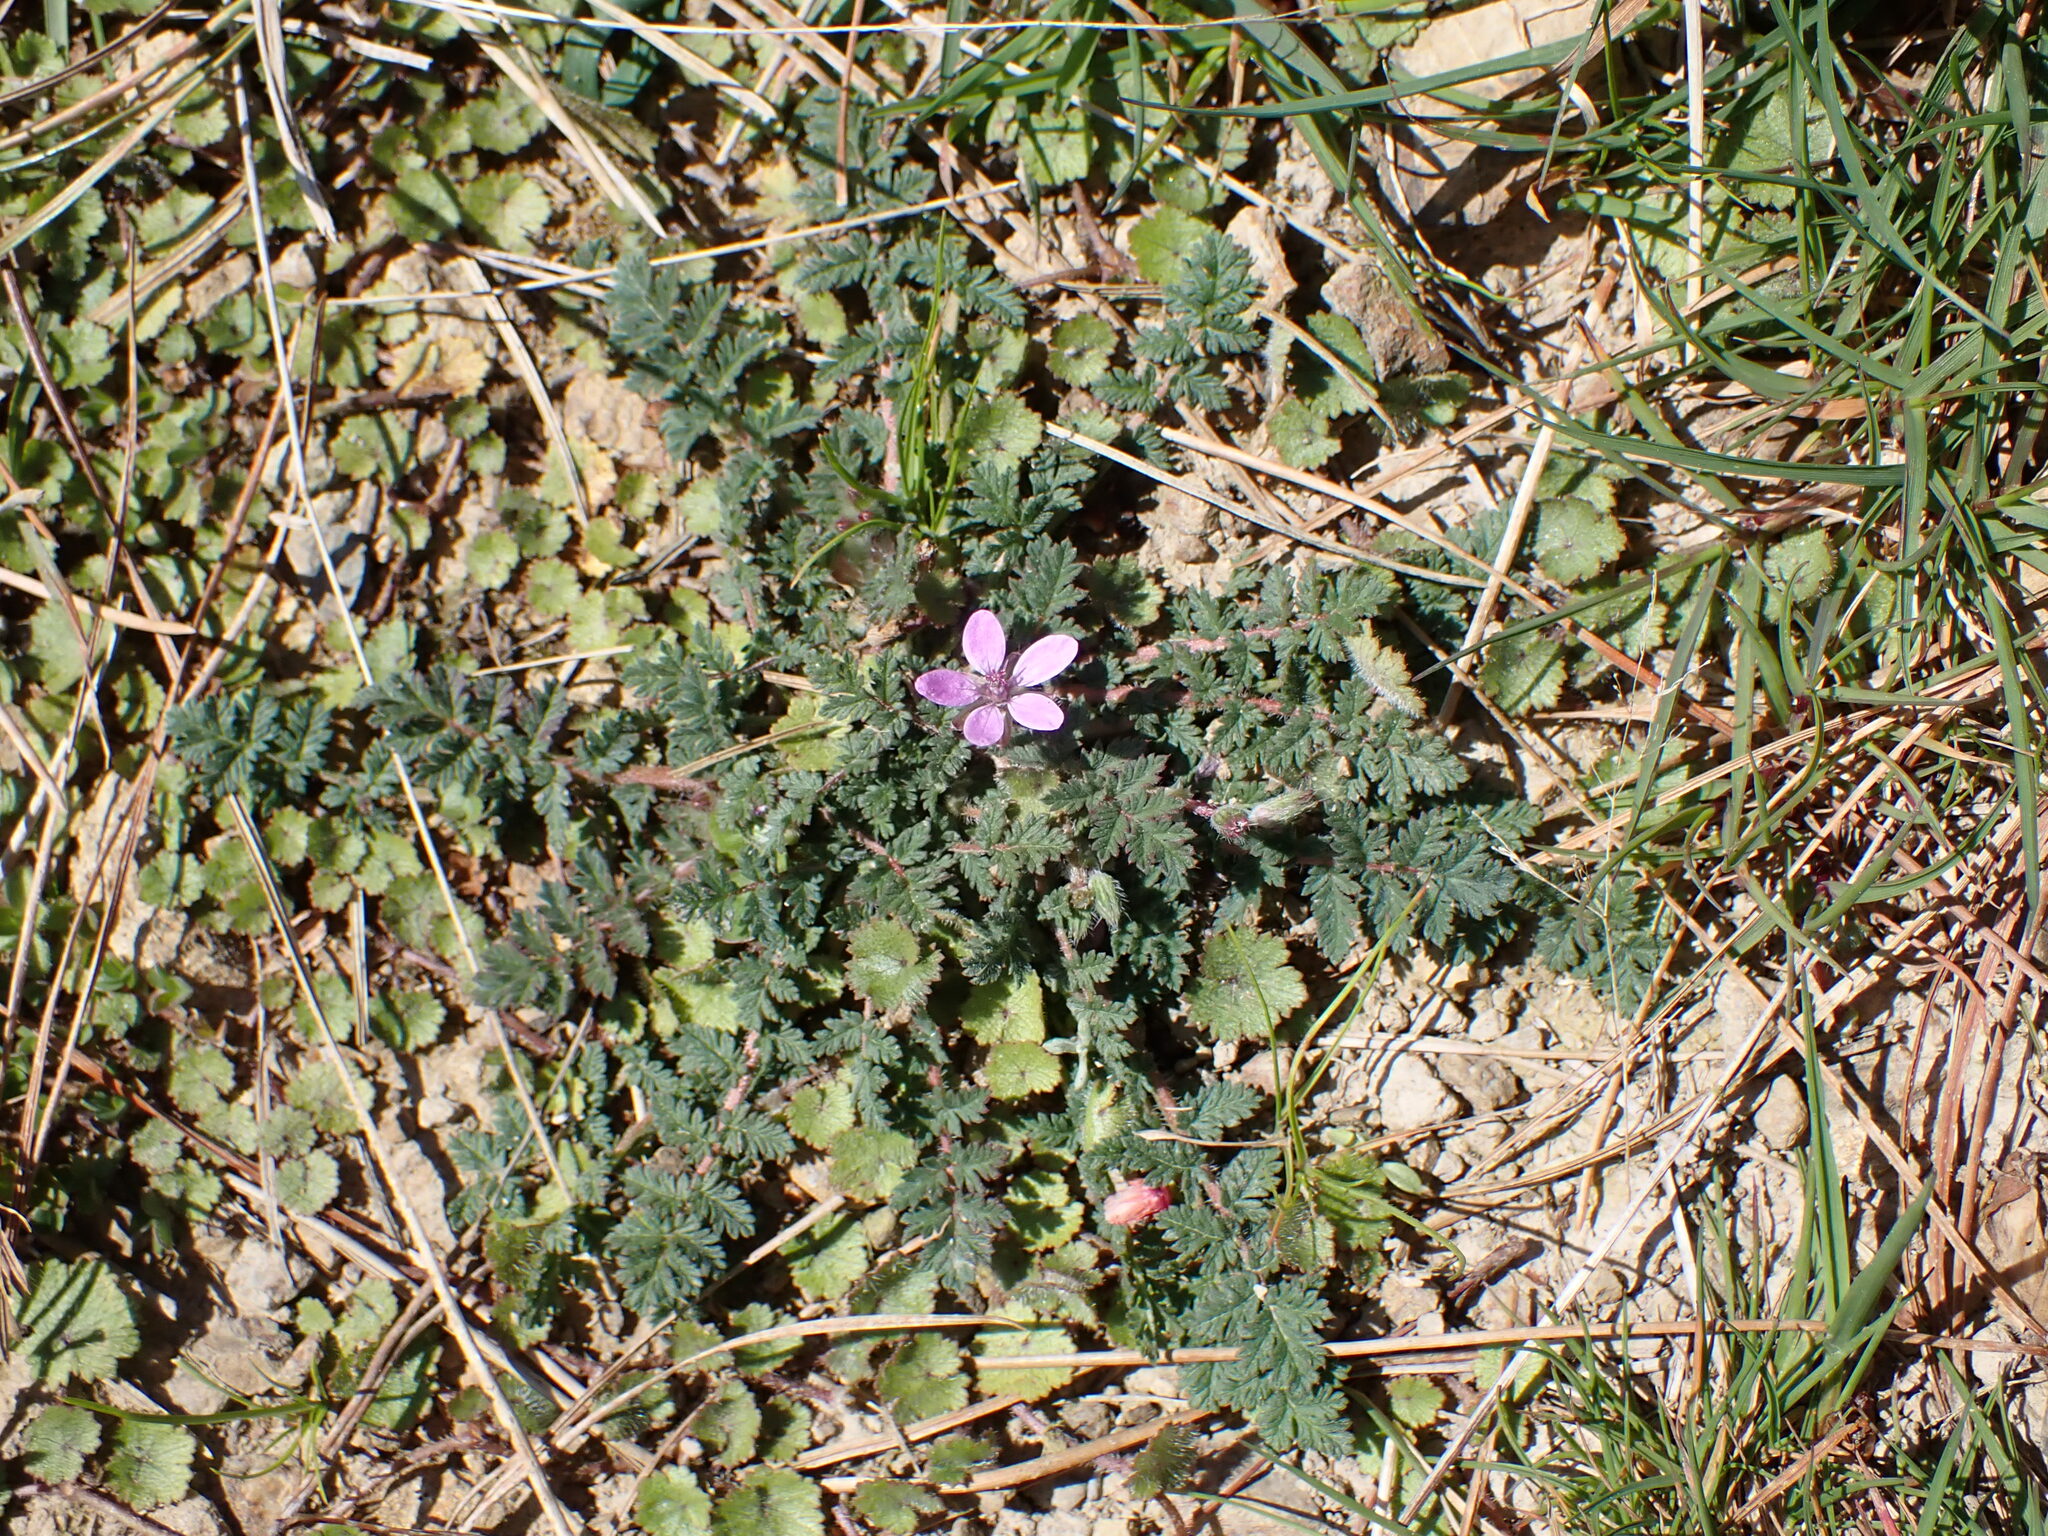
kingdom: Plantae
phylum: Tracheophyta
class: Magnoliopsida
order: Geraniales
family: Geraniaceae
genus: Erodium
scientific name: Erodium cicutarium
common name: Common stork's-bill
